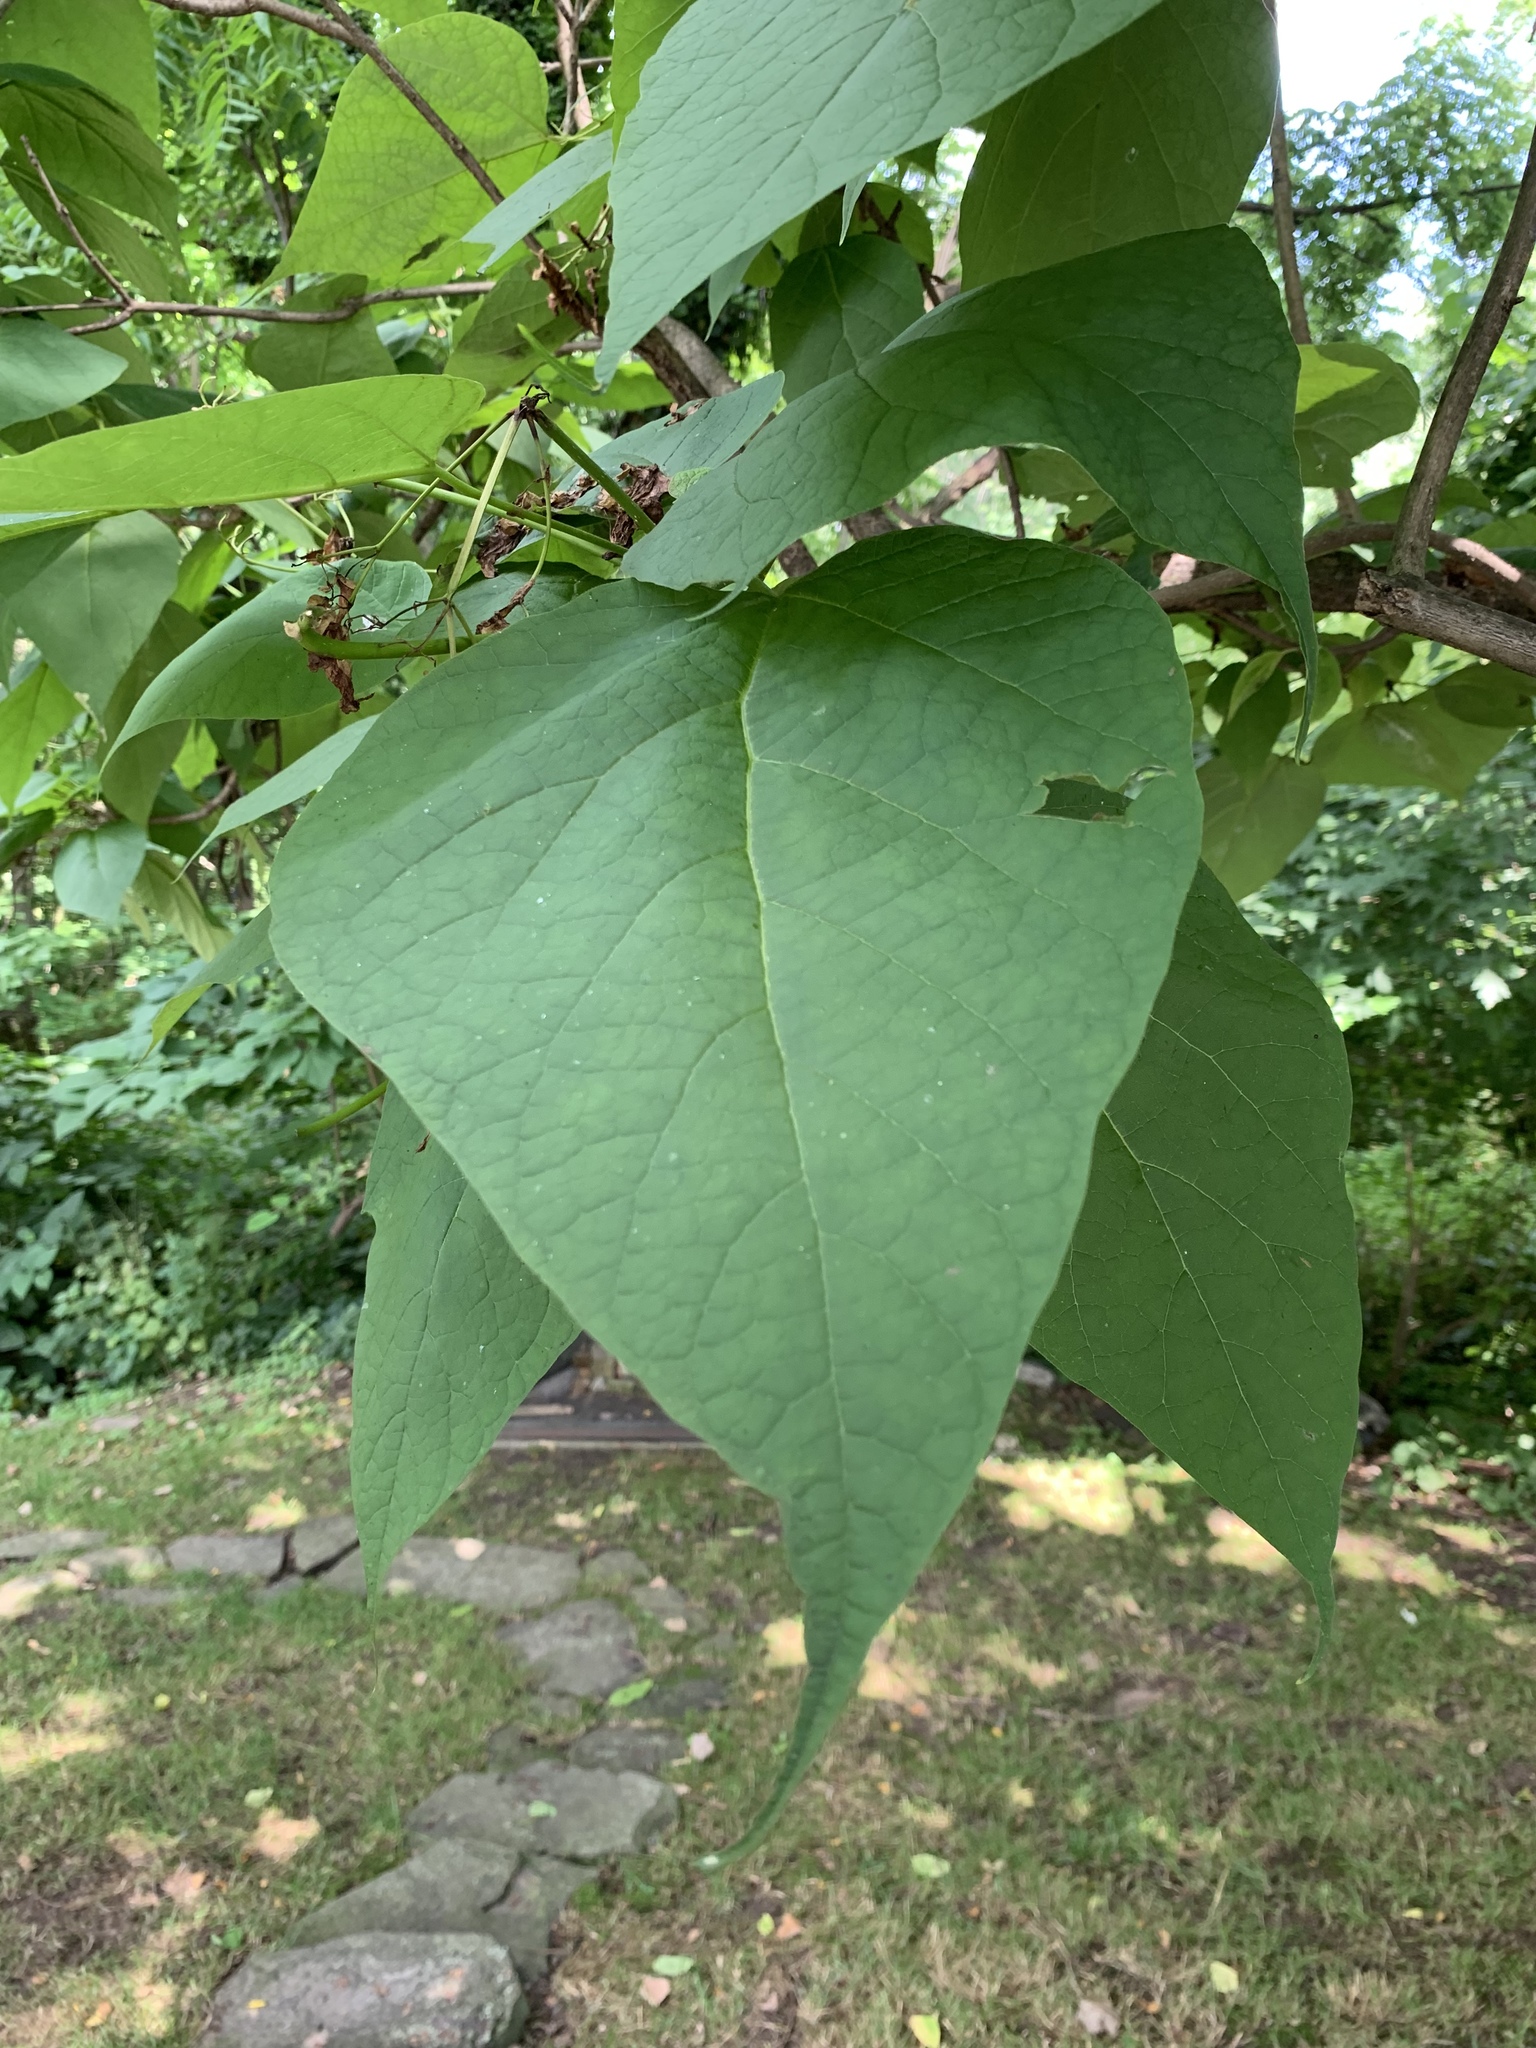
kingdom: Plantae
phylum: Tracheophyta
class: Magnoliopsida
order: Lamiales
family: Bignoniaceae
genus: Catalpa
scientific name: Catalpa speciosa
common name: Northern catalpa
